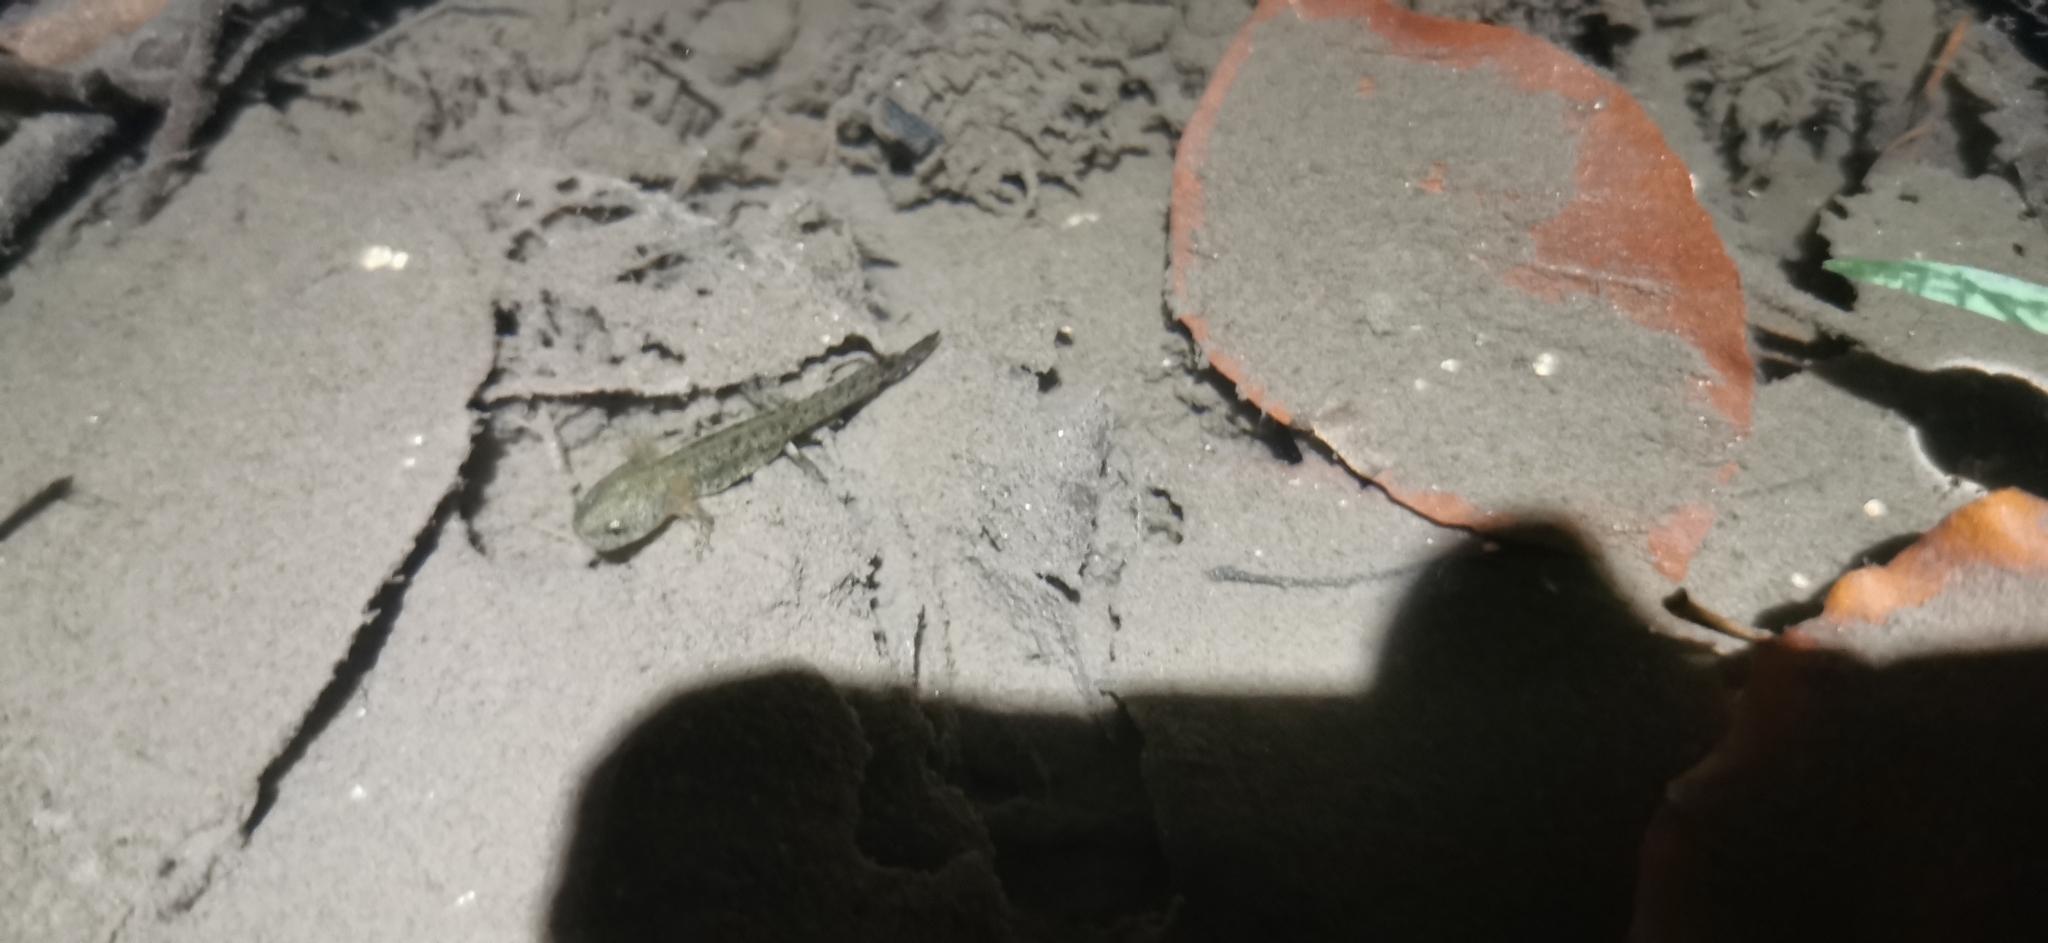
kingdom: Animalia
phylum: Chordata
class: Amphibia
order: Caudata
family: Salamandridae
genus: Salamandra
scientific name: Salamandra salamandra
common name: Fire salamander
